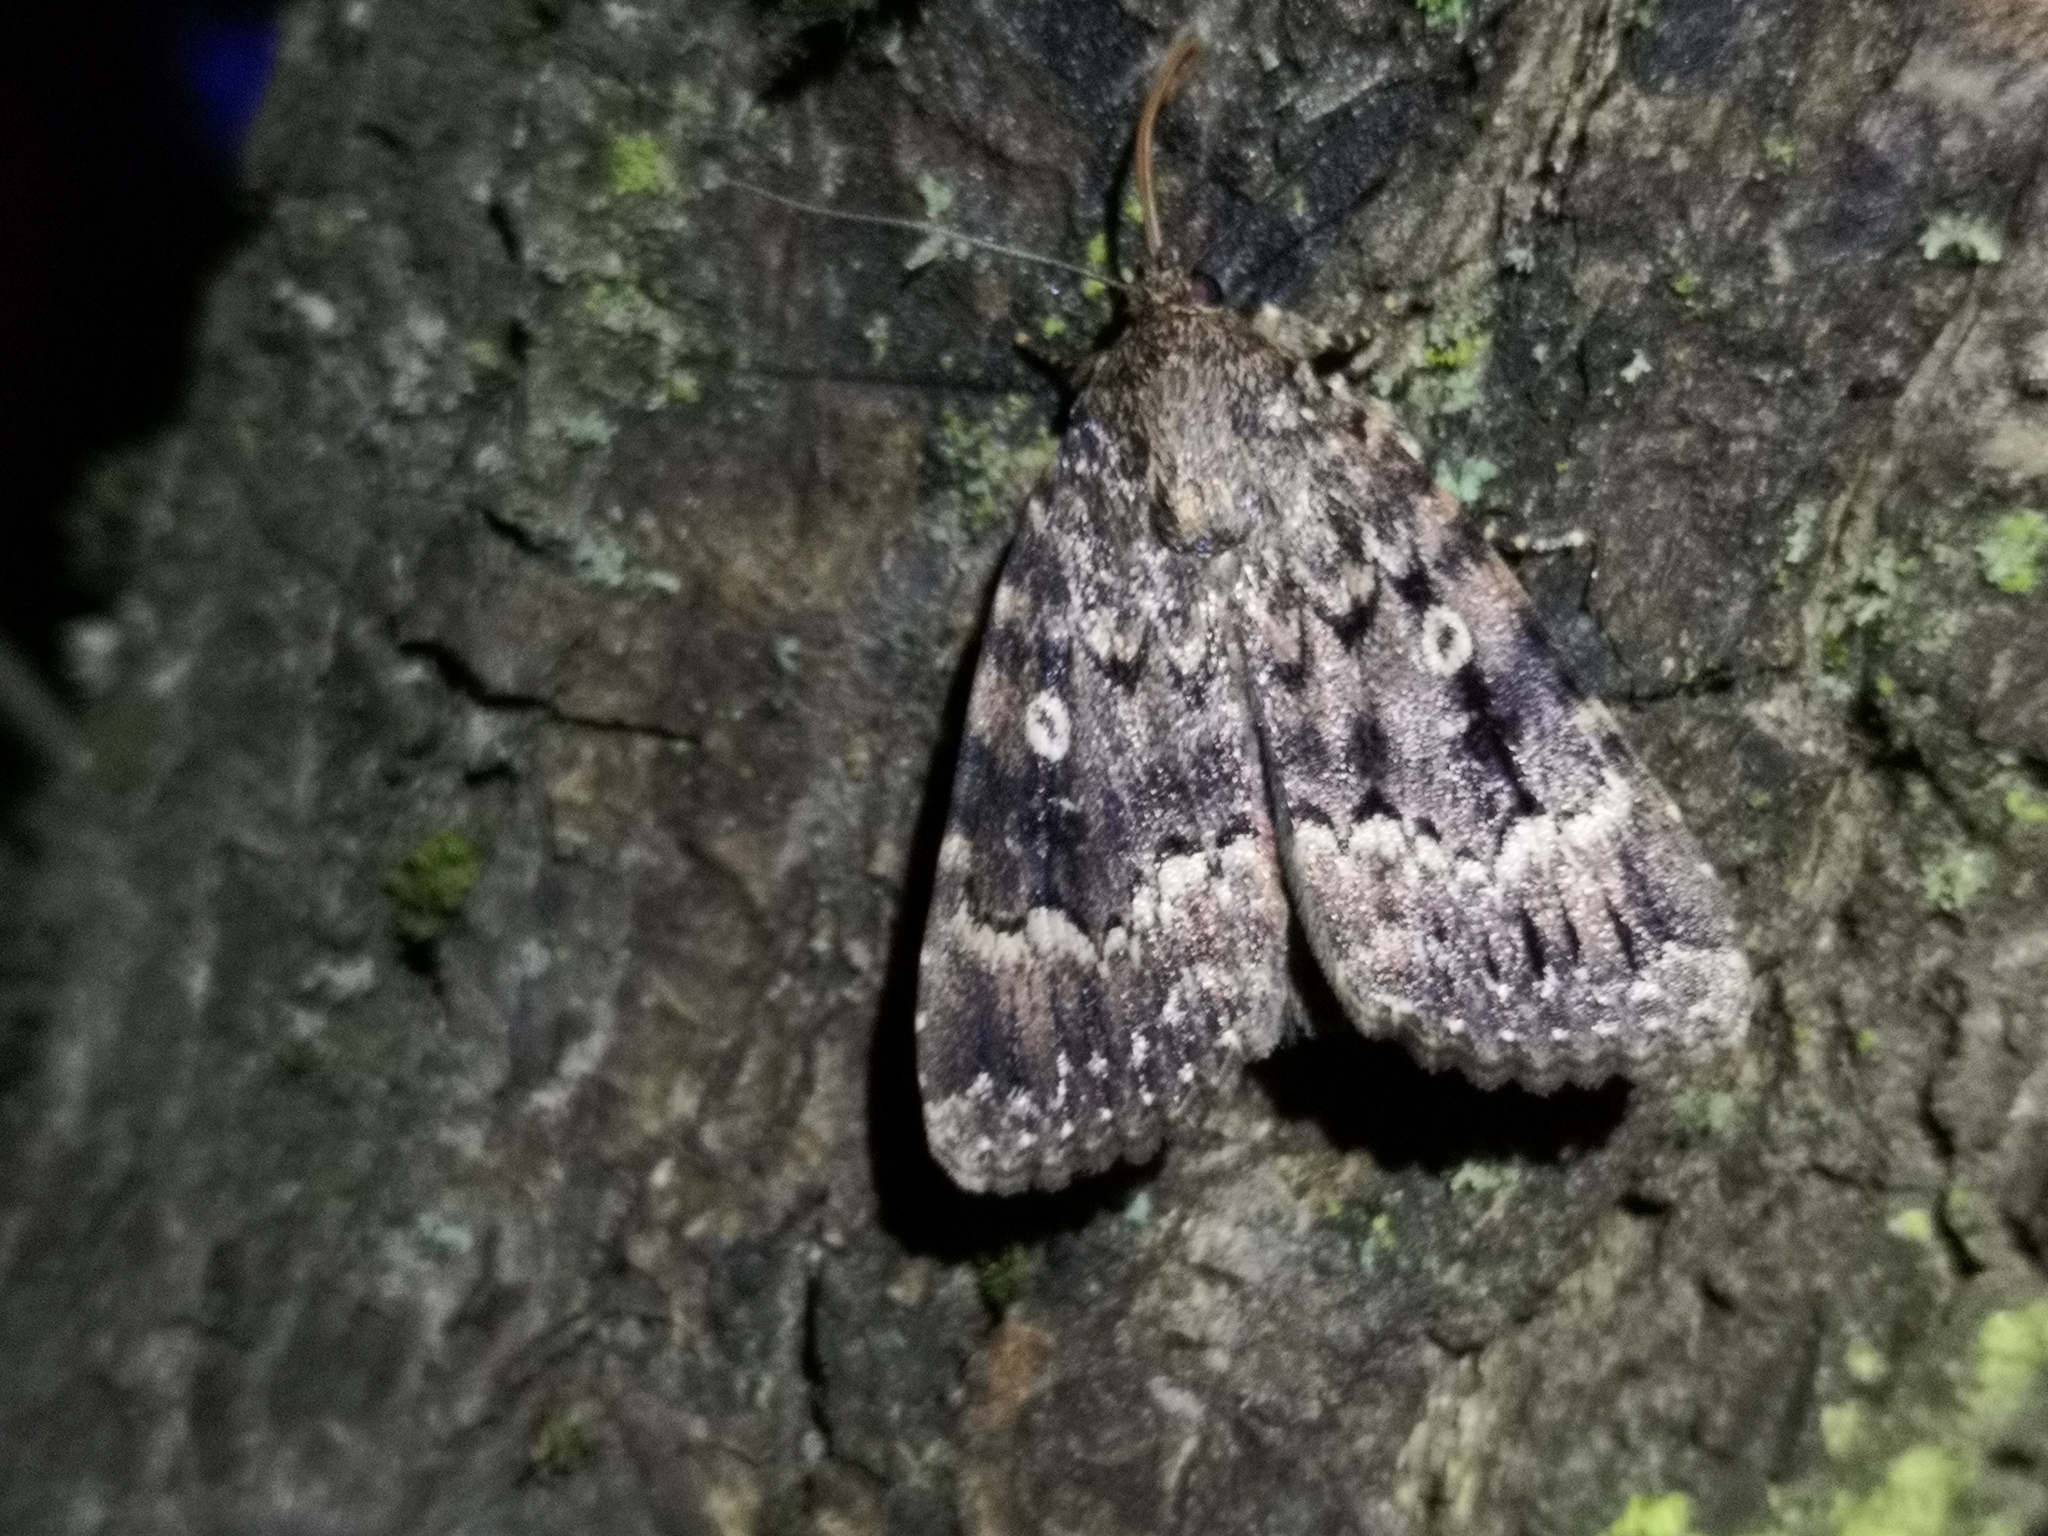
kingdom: Animalia
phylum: Arthropoda
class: Insecta
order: Lepidoptera
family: Noctuidae
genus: Amphipyra
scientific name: Amphipyra berbera
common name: Svensson's copper underwing
